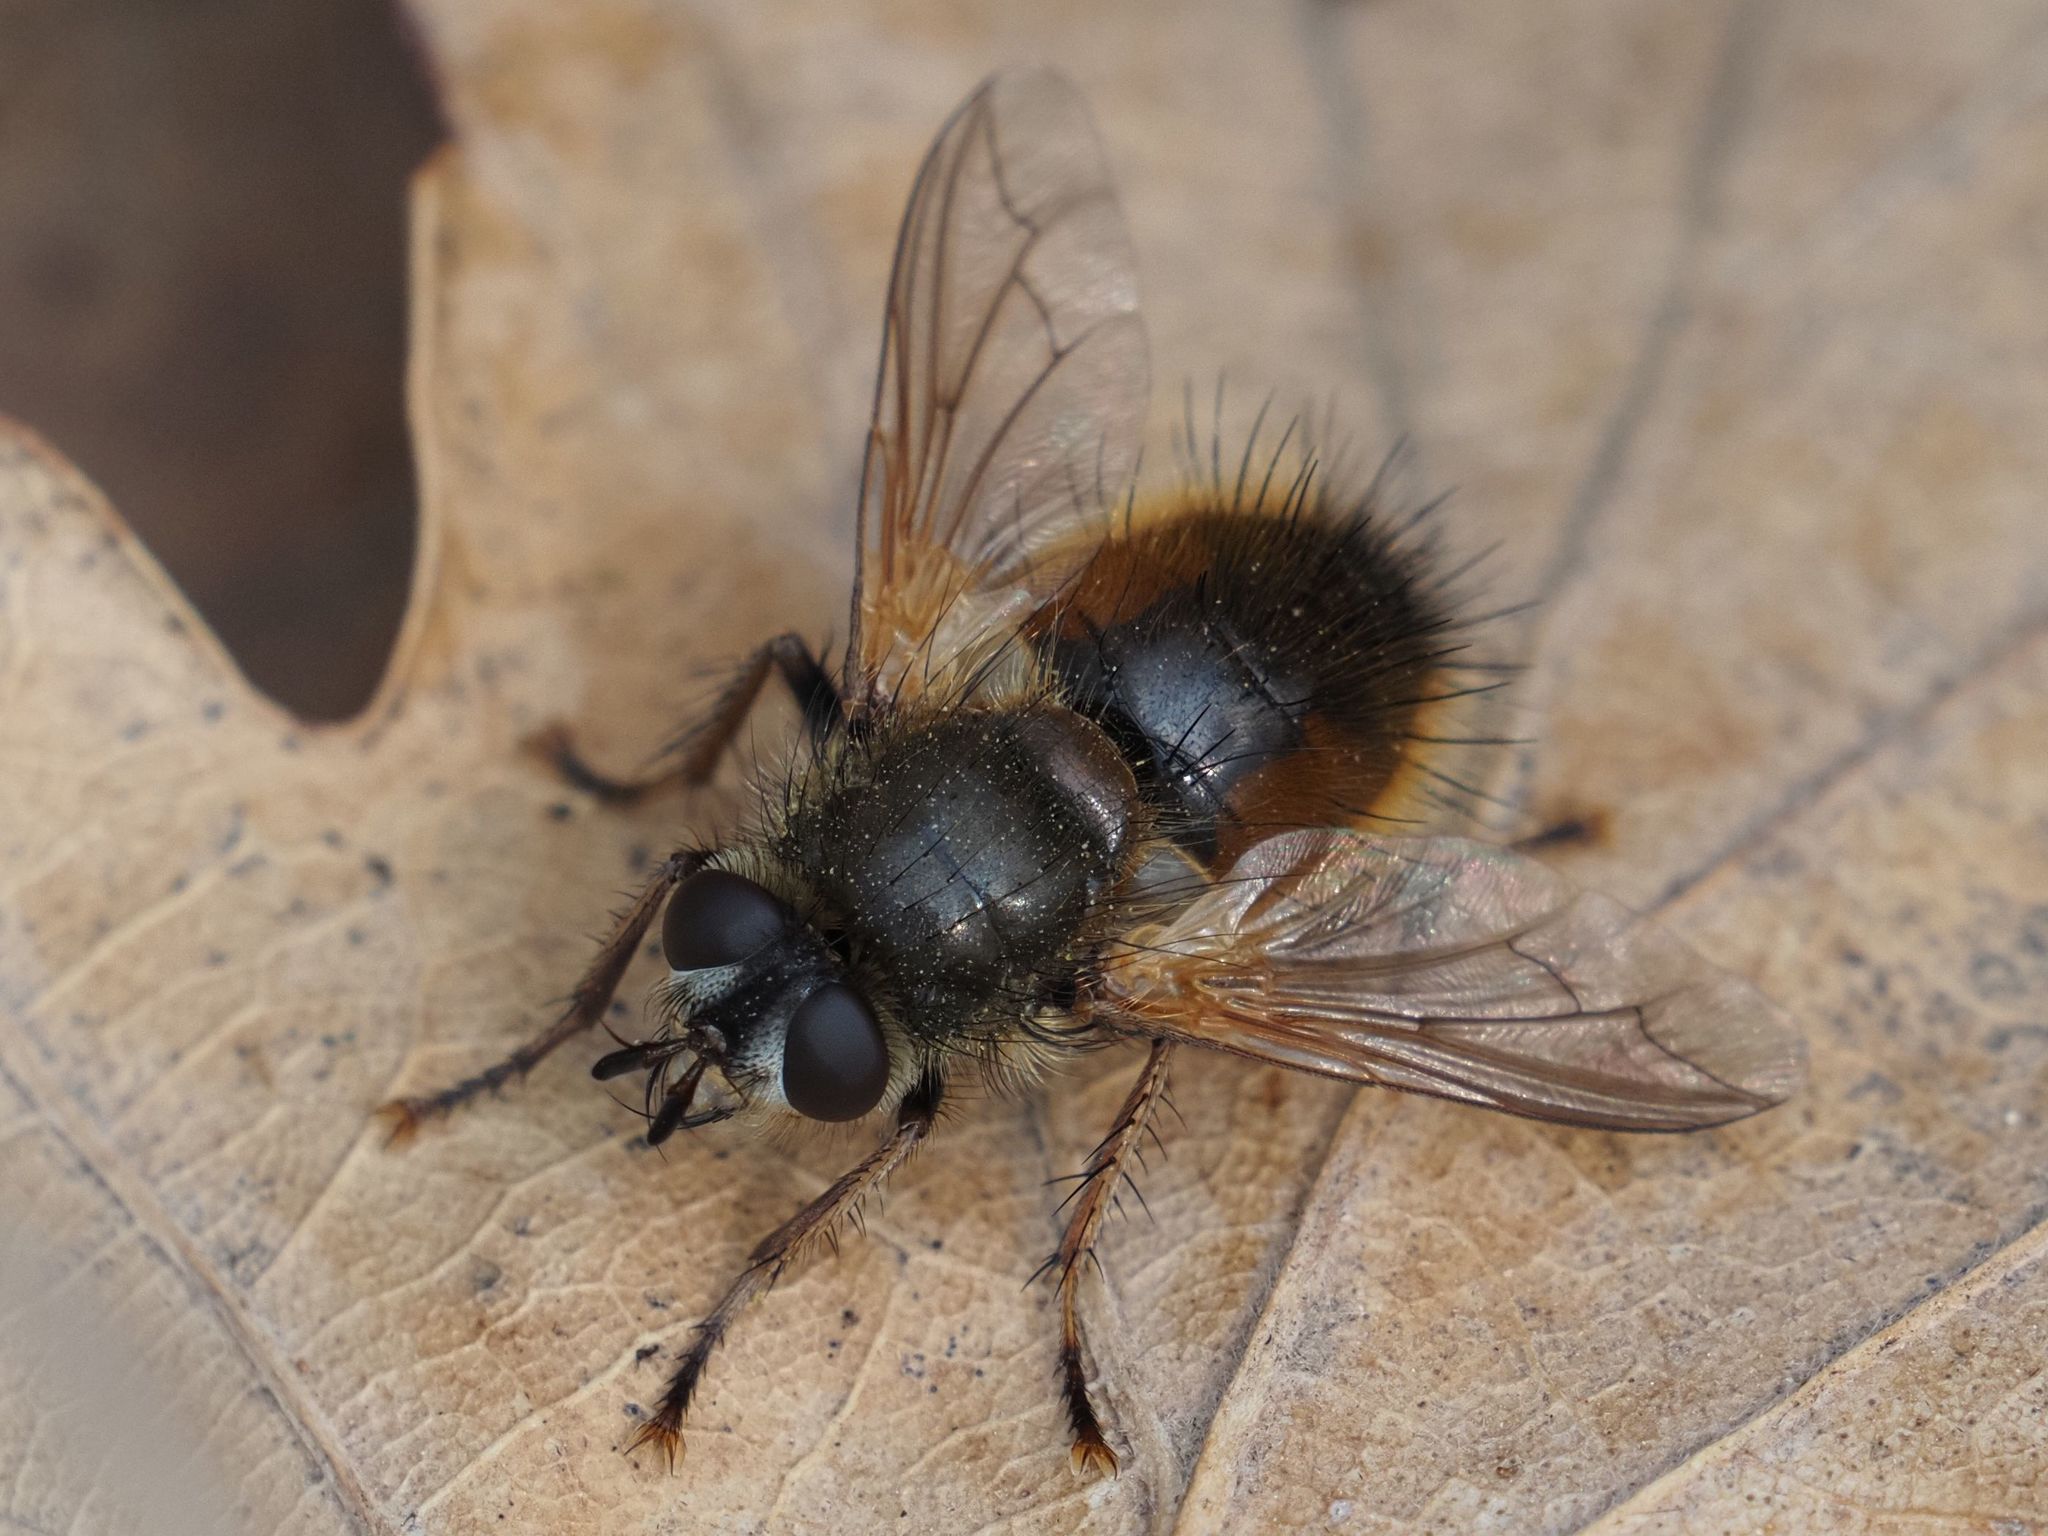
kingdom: Animalia
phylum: Arthropoda
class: Insecta
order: Diptera
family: Tachinidae
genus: Tachina
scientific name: Tachina lurida
